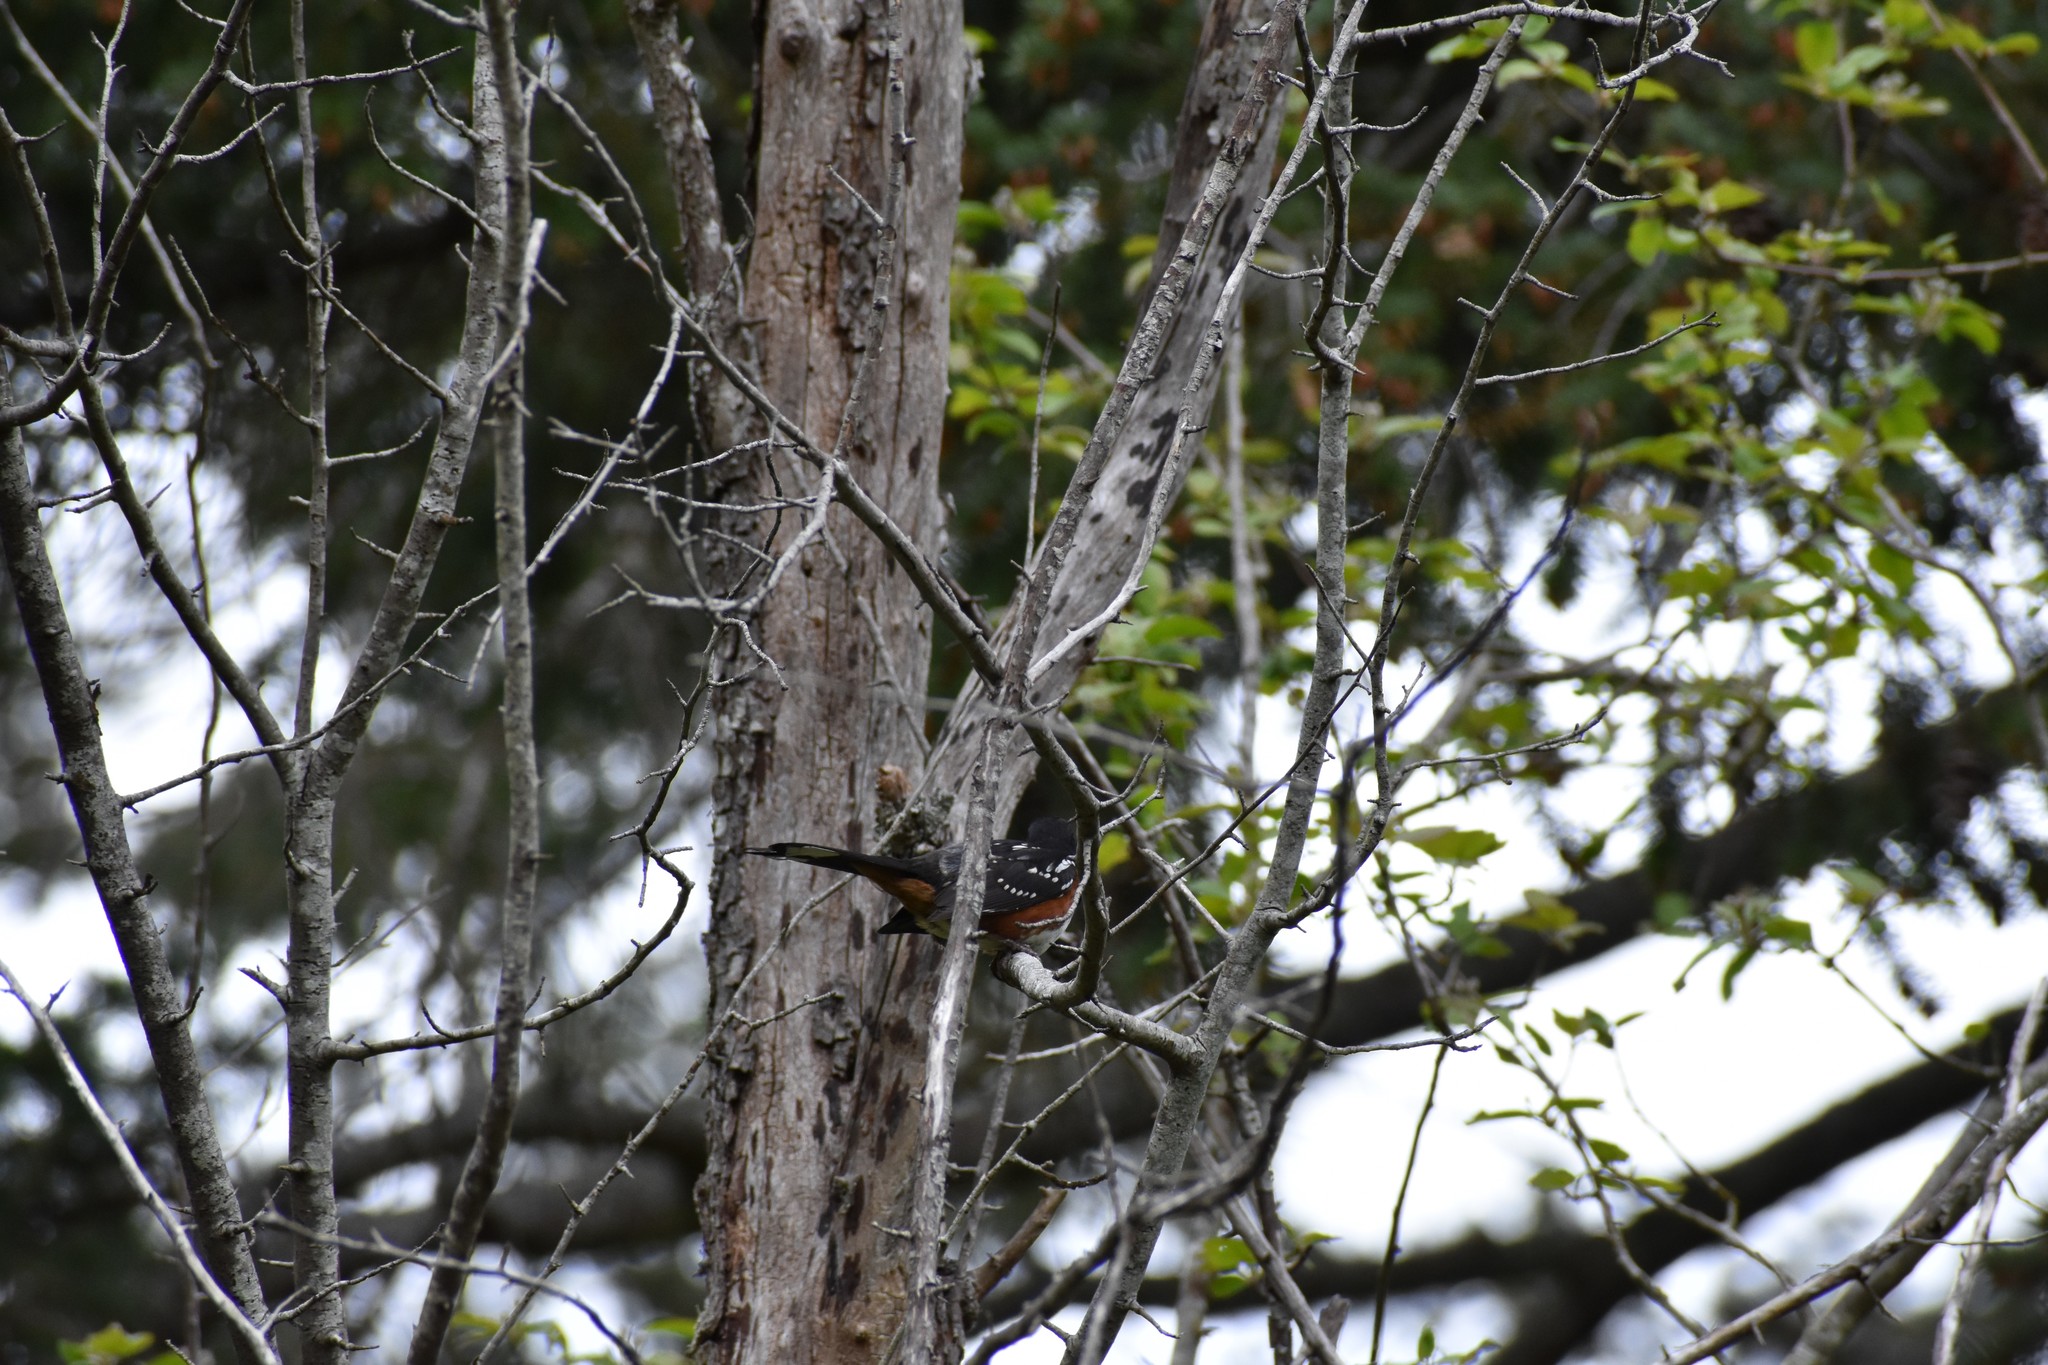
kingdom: Animalia
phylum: Chordata
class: Aves
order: Passeriformes
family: Passerellidae
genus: Pipilo
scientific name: Pipilo maculatus
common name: Spotted towhee
